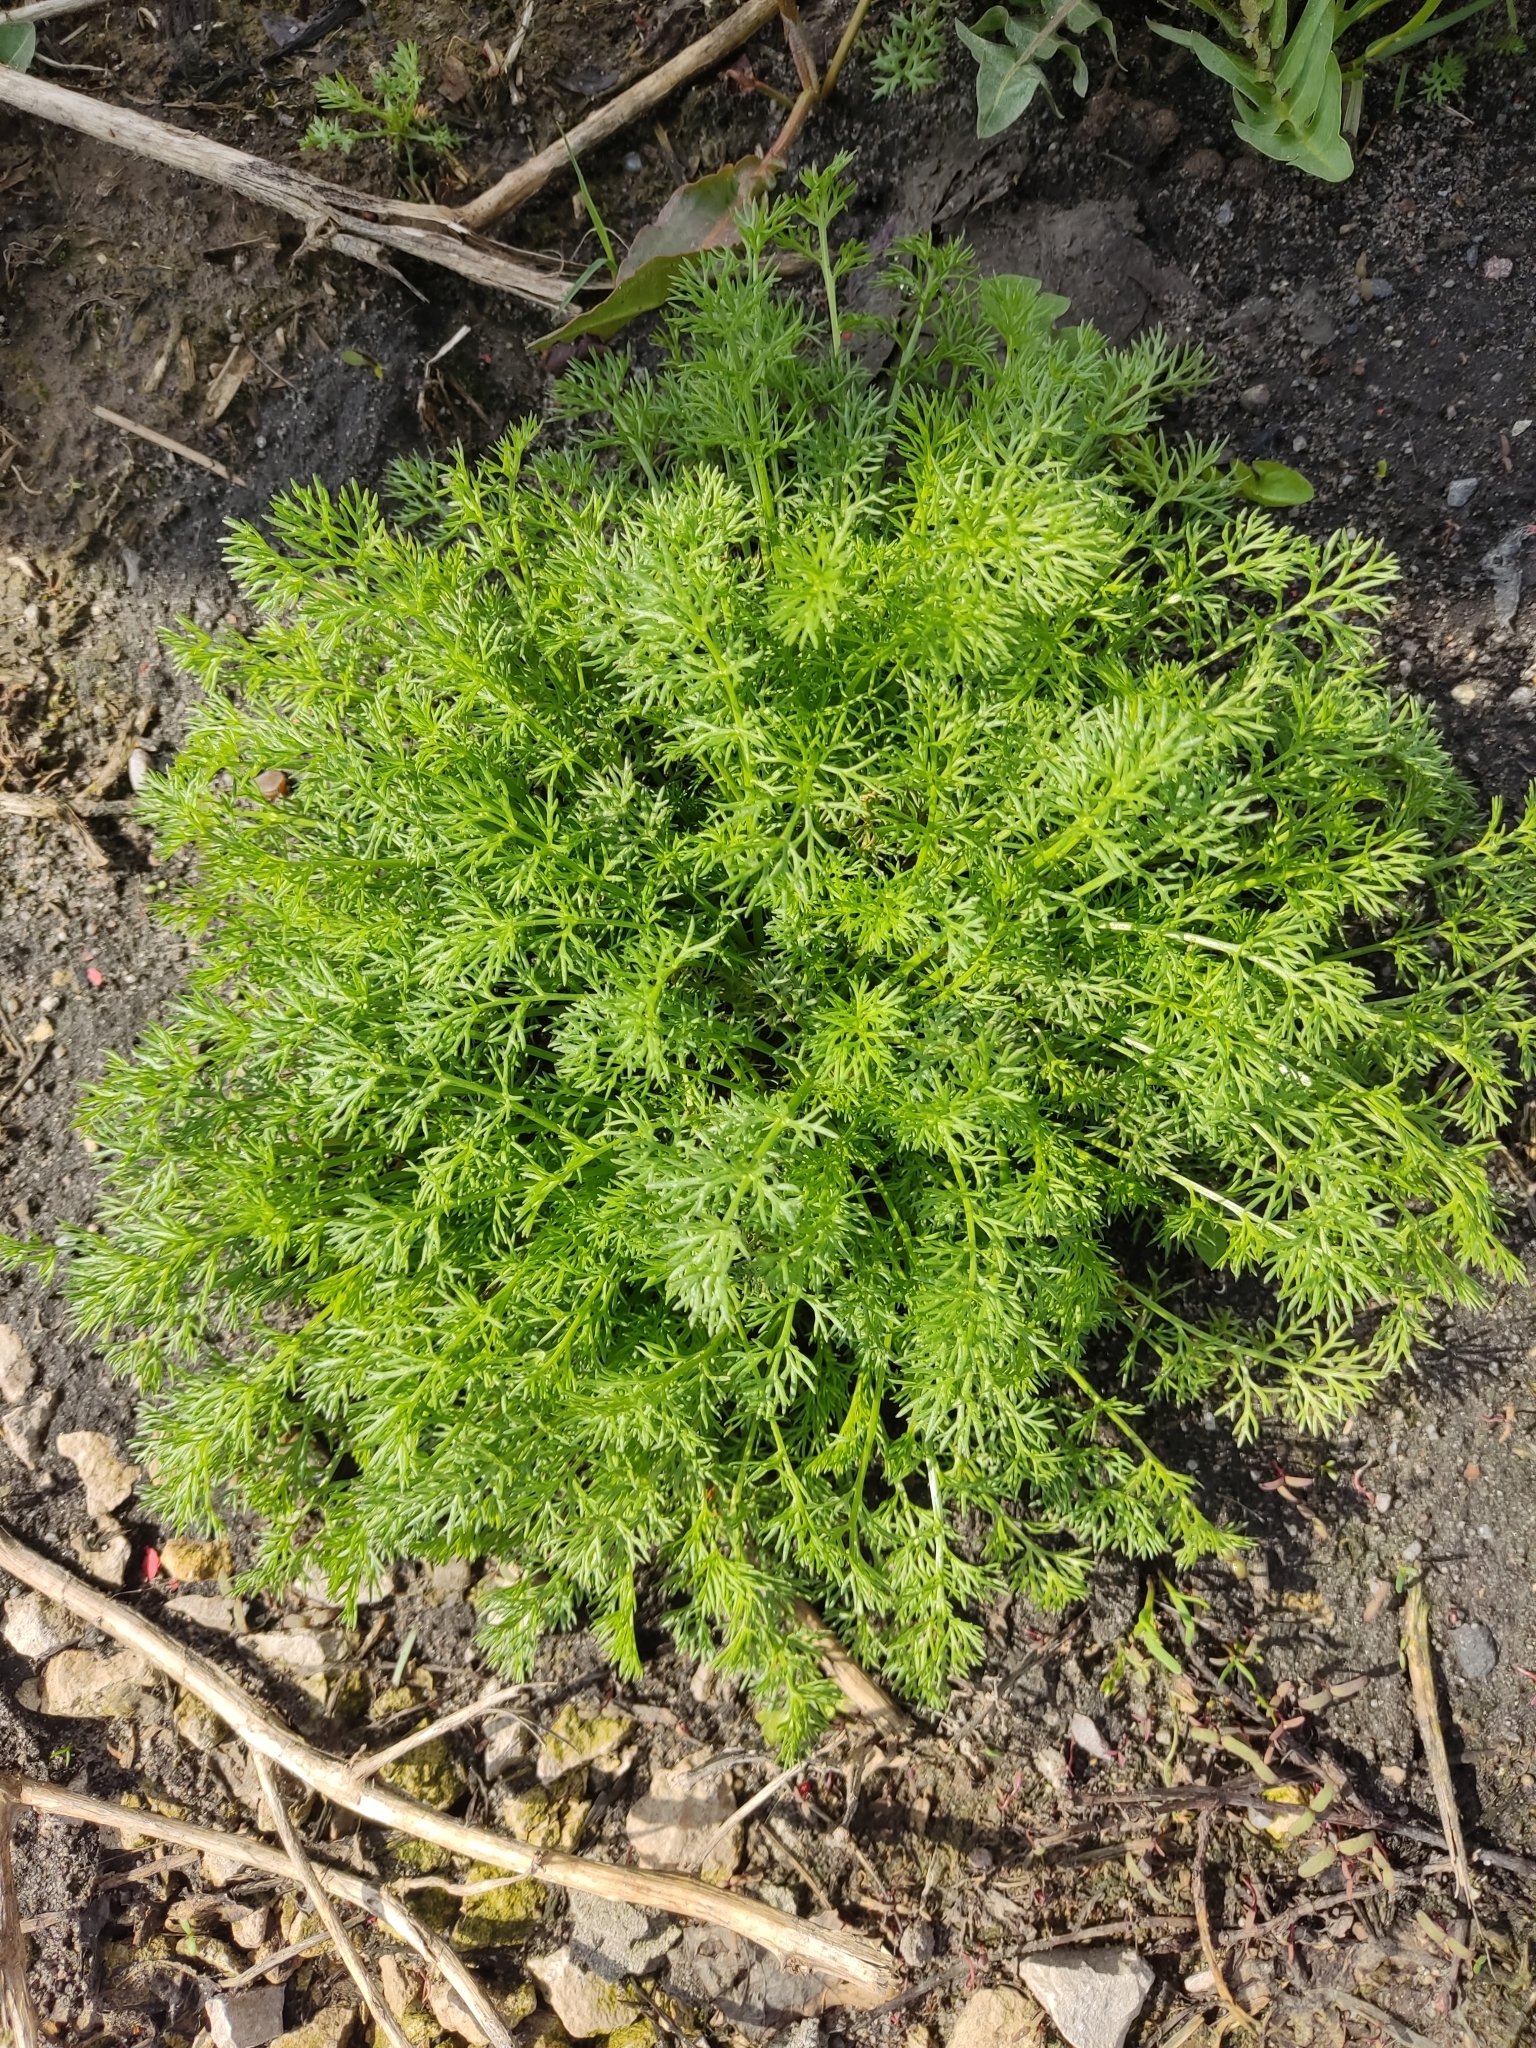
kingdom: Plantae
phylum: Tracheophyta
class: Magnoliopsida
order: Asterales
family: Asteraceae
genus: Tripleurospermum
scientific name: Tripleurospermum inodorum
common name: Scentless mayweed
